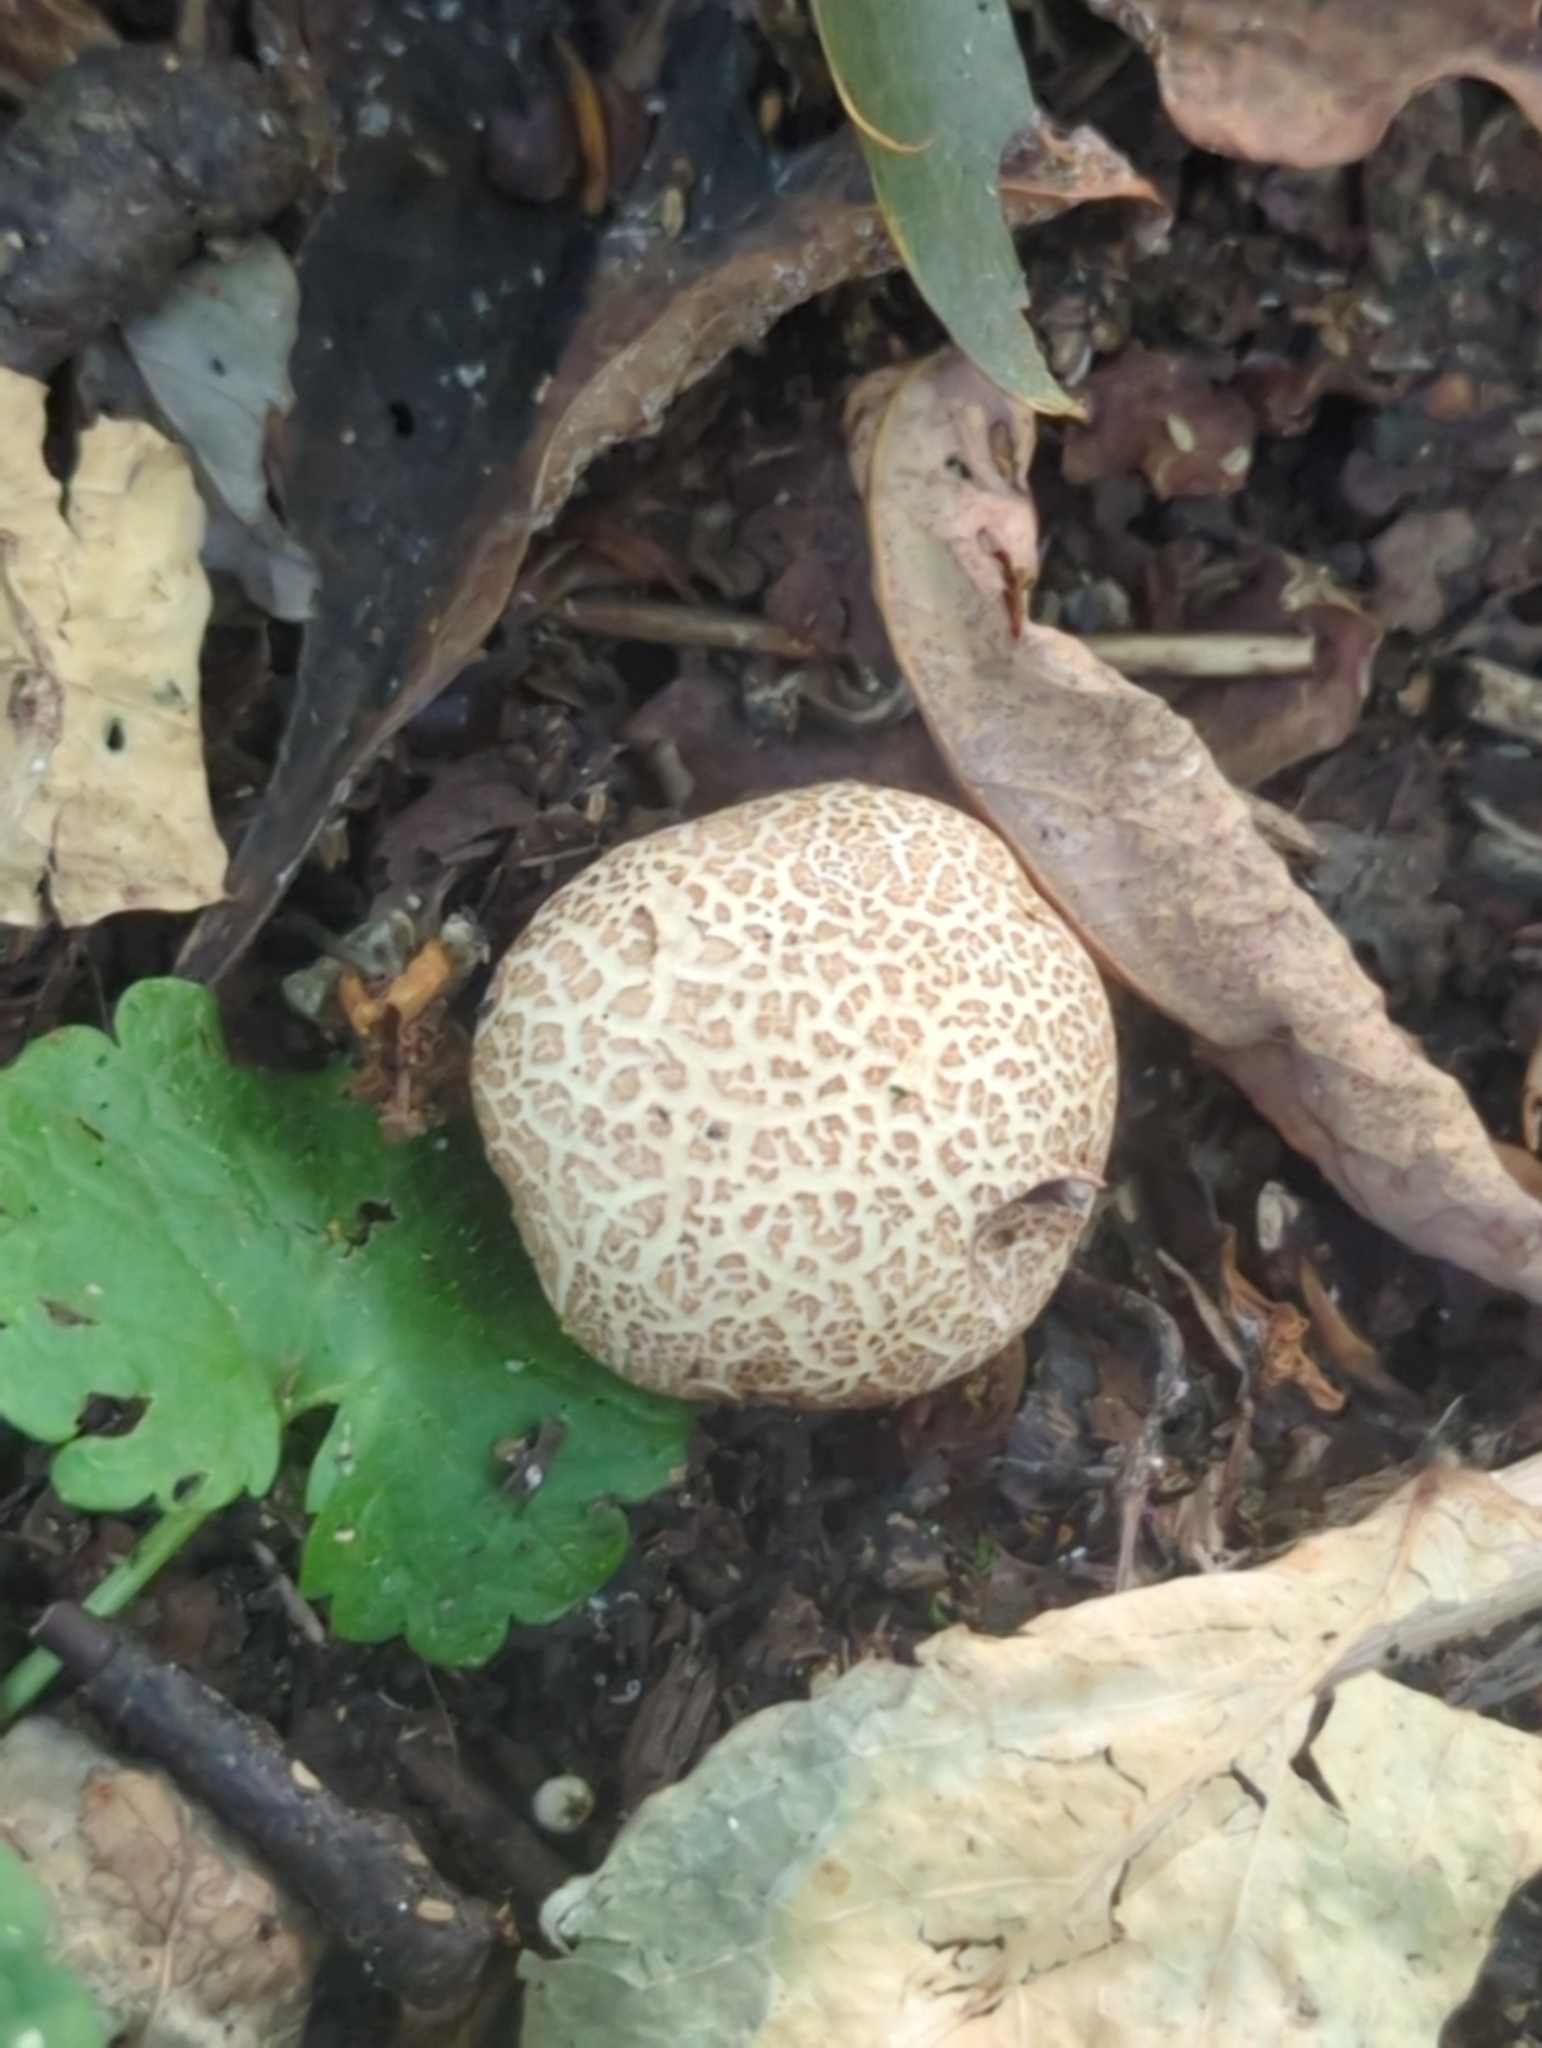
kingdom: Fungi
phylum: Basidiomycota
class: Agaricomycetes
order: Boletales
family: Sclerodermataceae
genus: Scleroderma
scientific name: Scleroderma areolatum
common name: Leopard earthball
